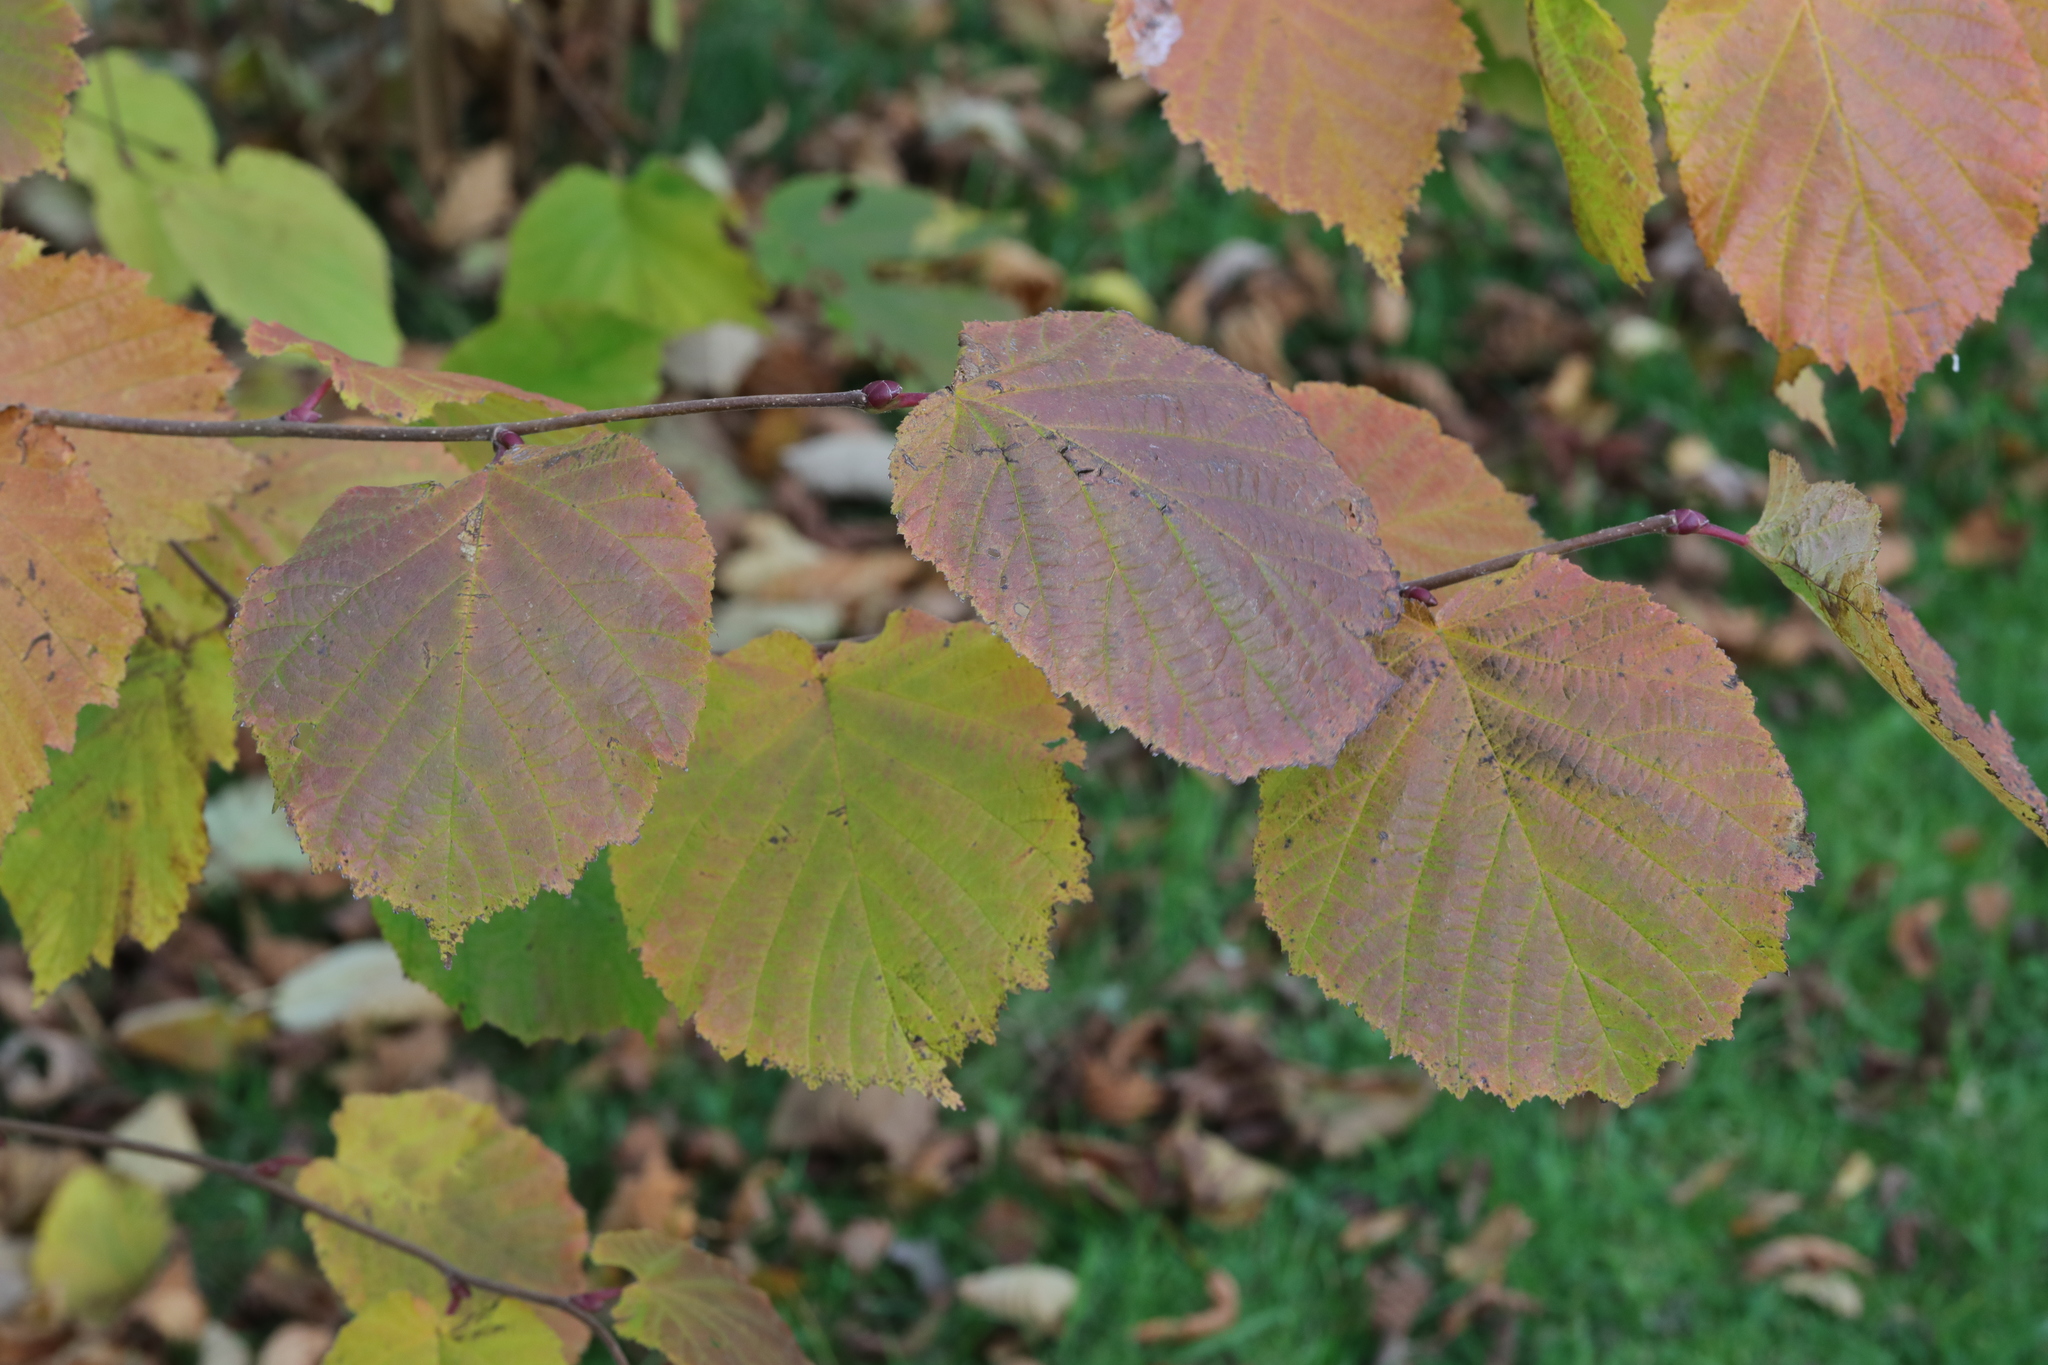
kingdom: Plantae
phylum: Tracheophyta
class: Magnoliopsida
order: Fagales
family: Betulaceae
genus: Corylus
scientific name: Corylus avellana
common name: European hazel
